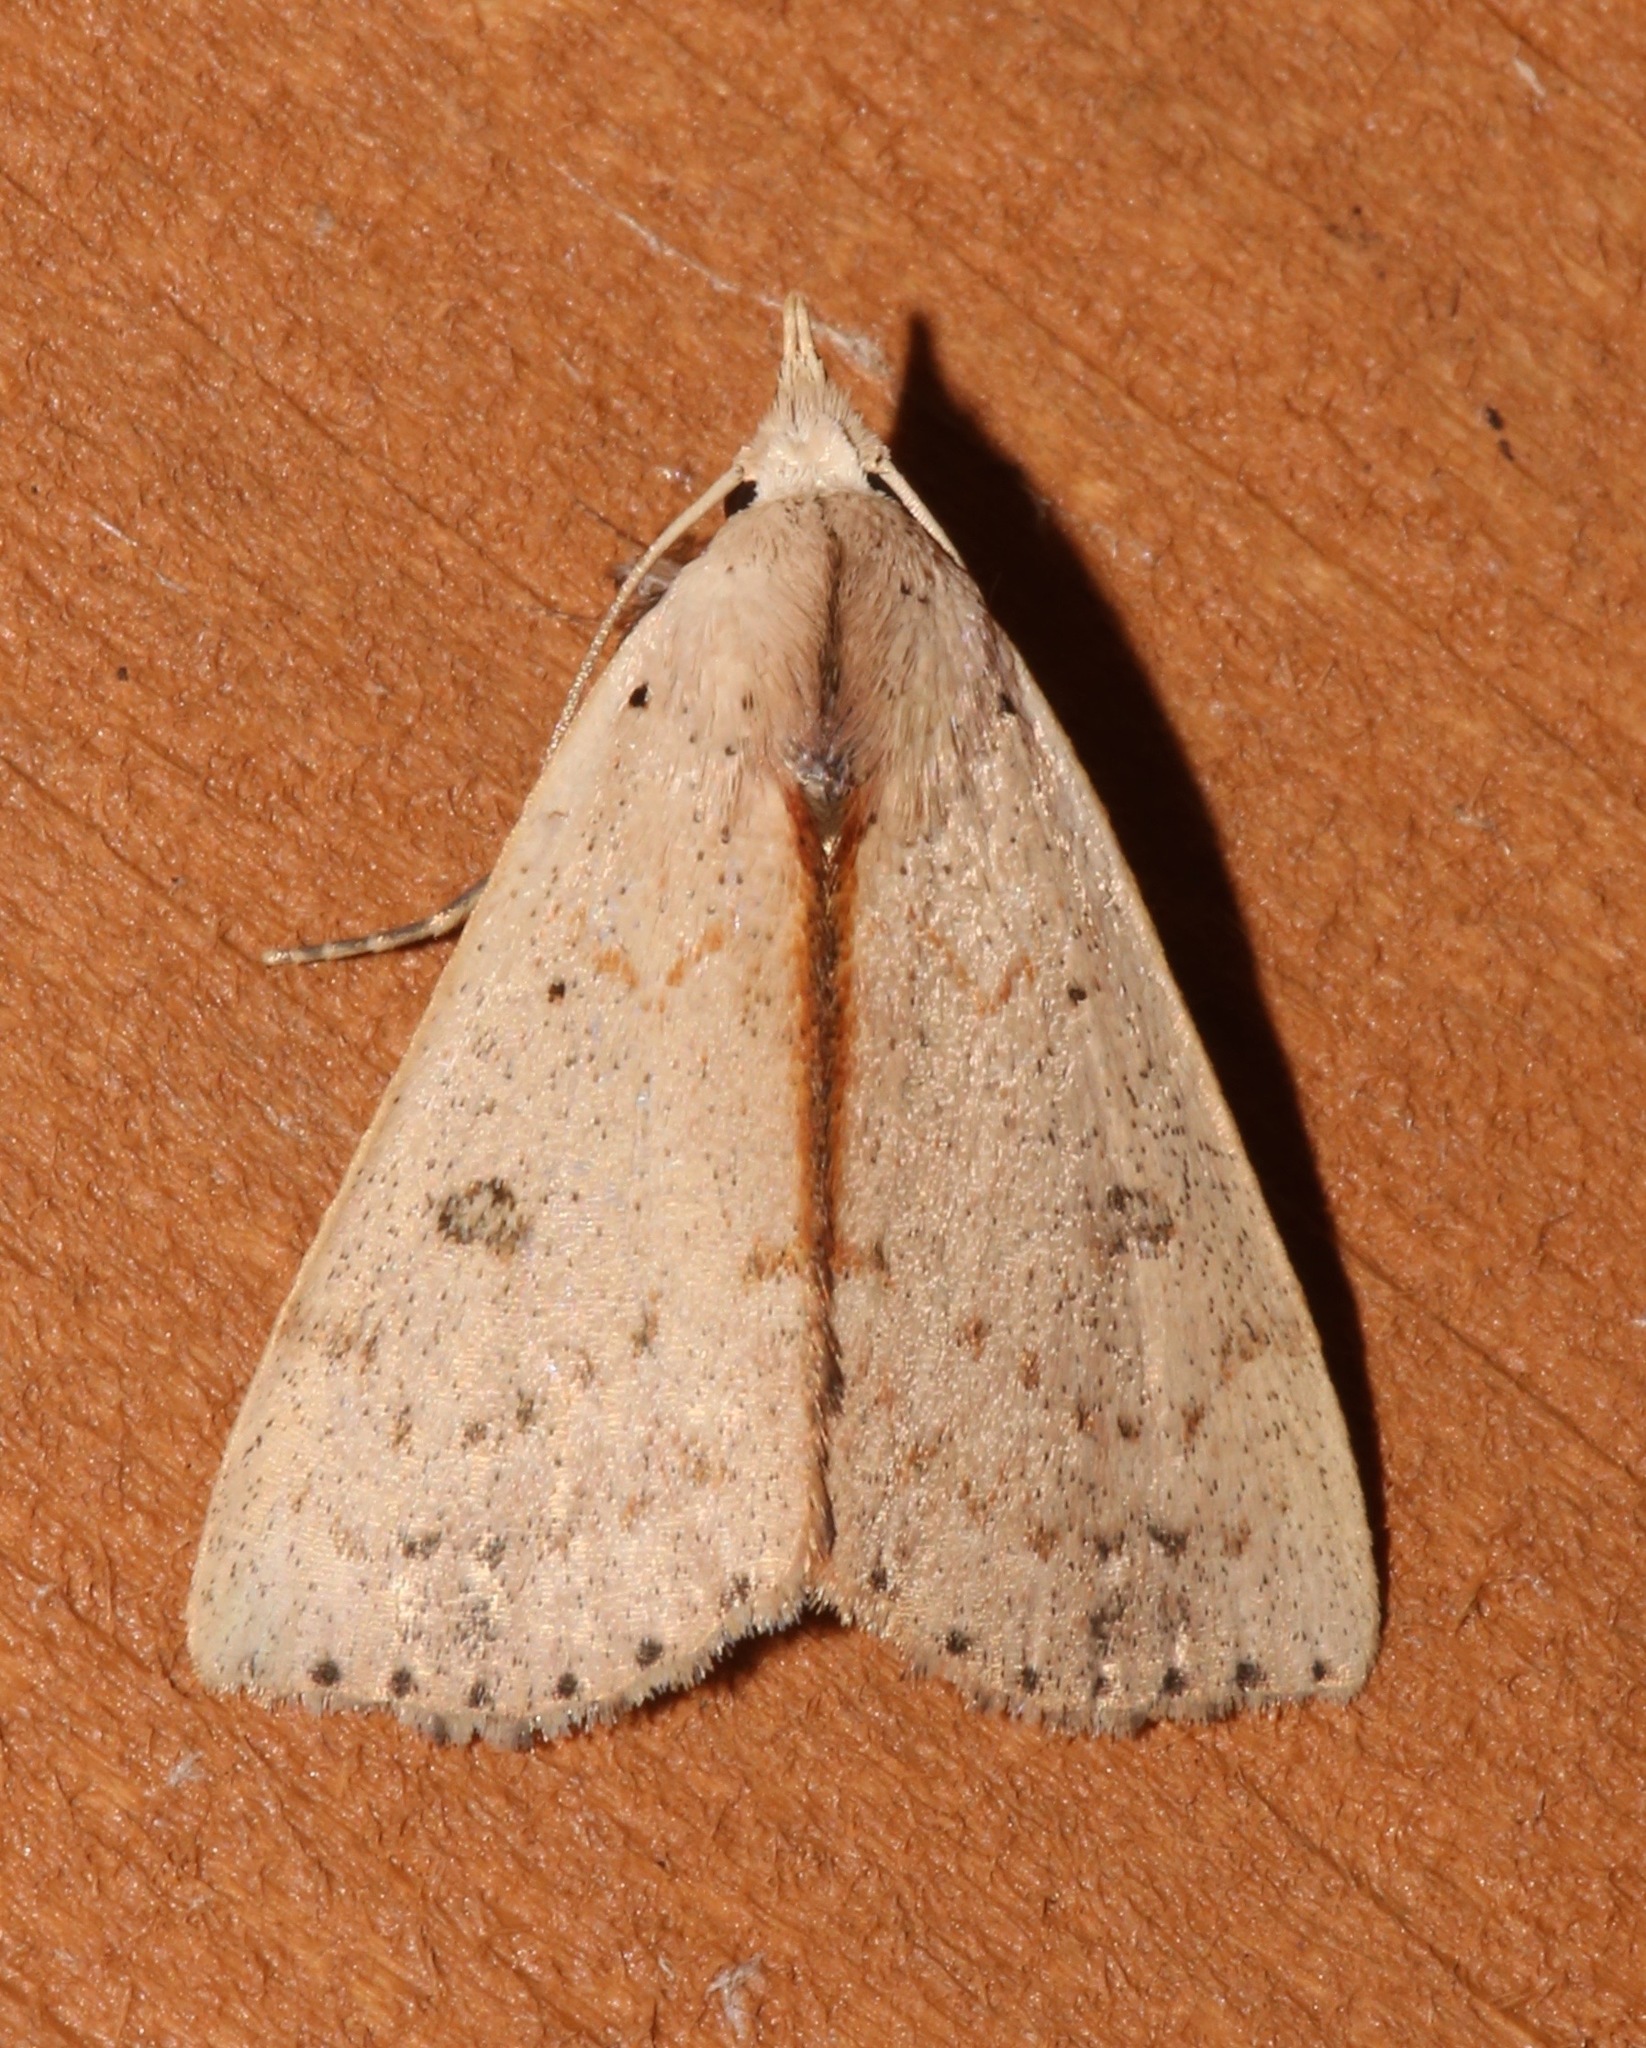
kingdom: Animalia
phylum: Arthropoda
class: Insecta
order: Lepidoptera
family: Erebidae
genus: Scolecocampa
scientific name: Scolecocampa liburna
